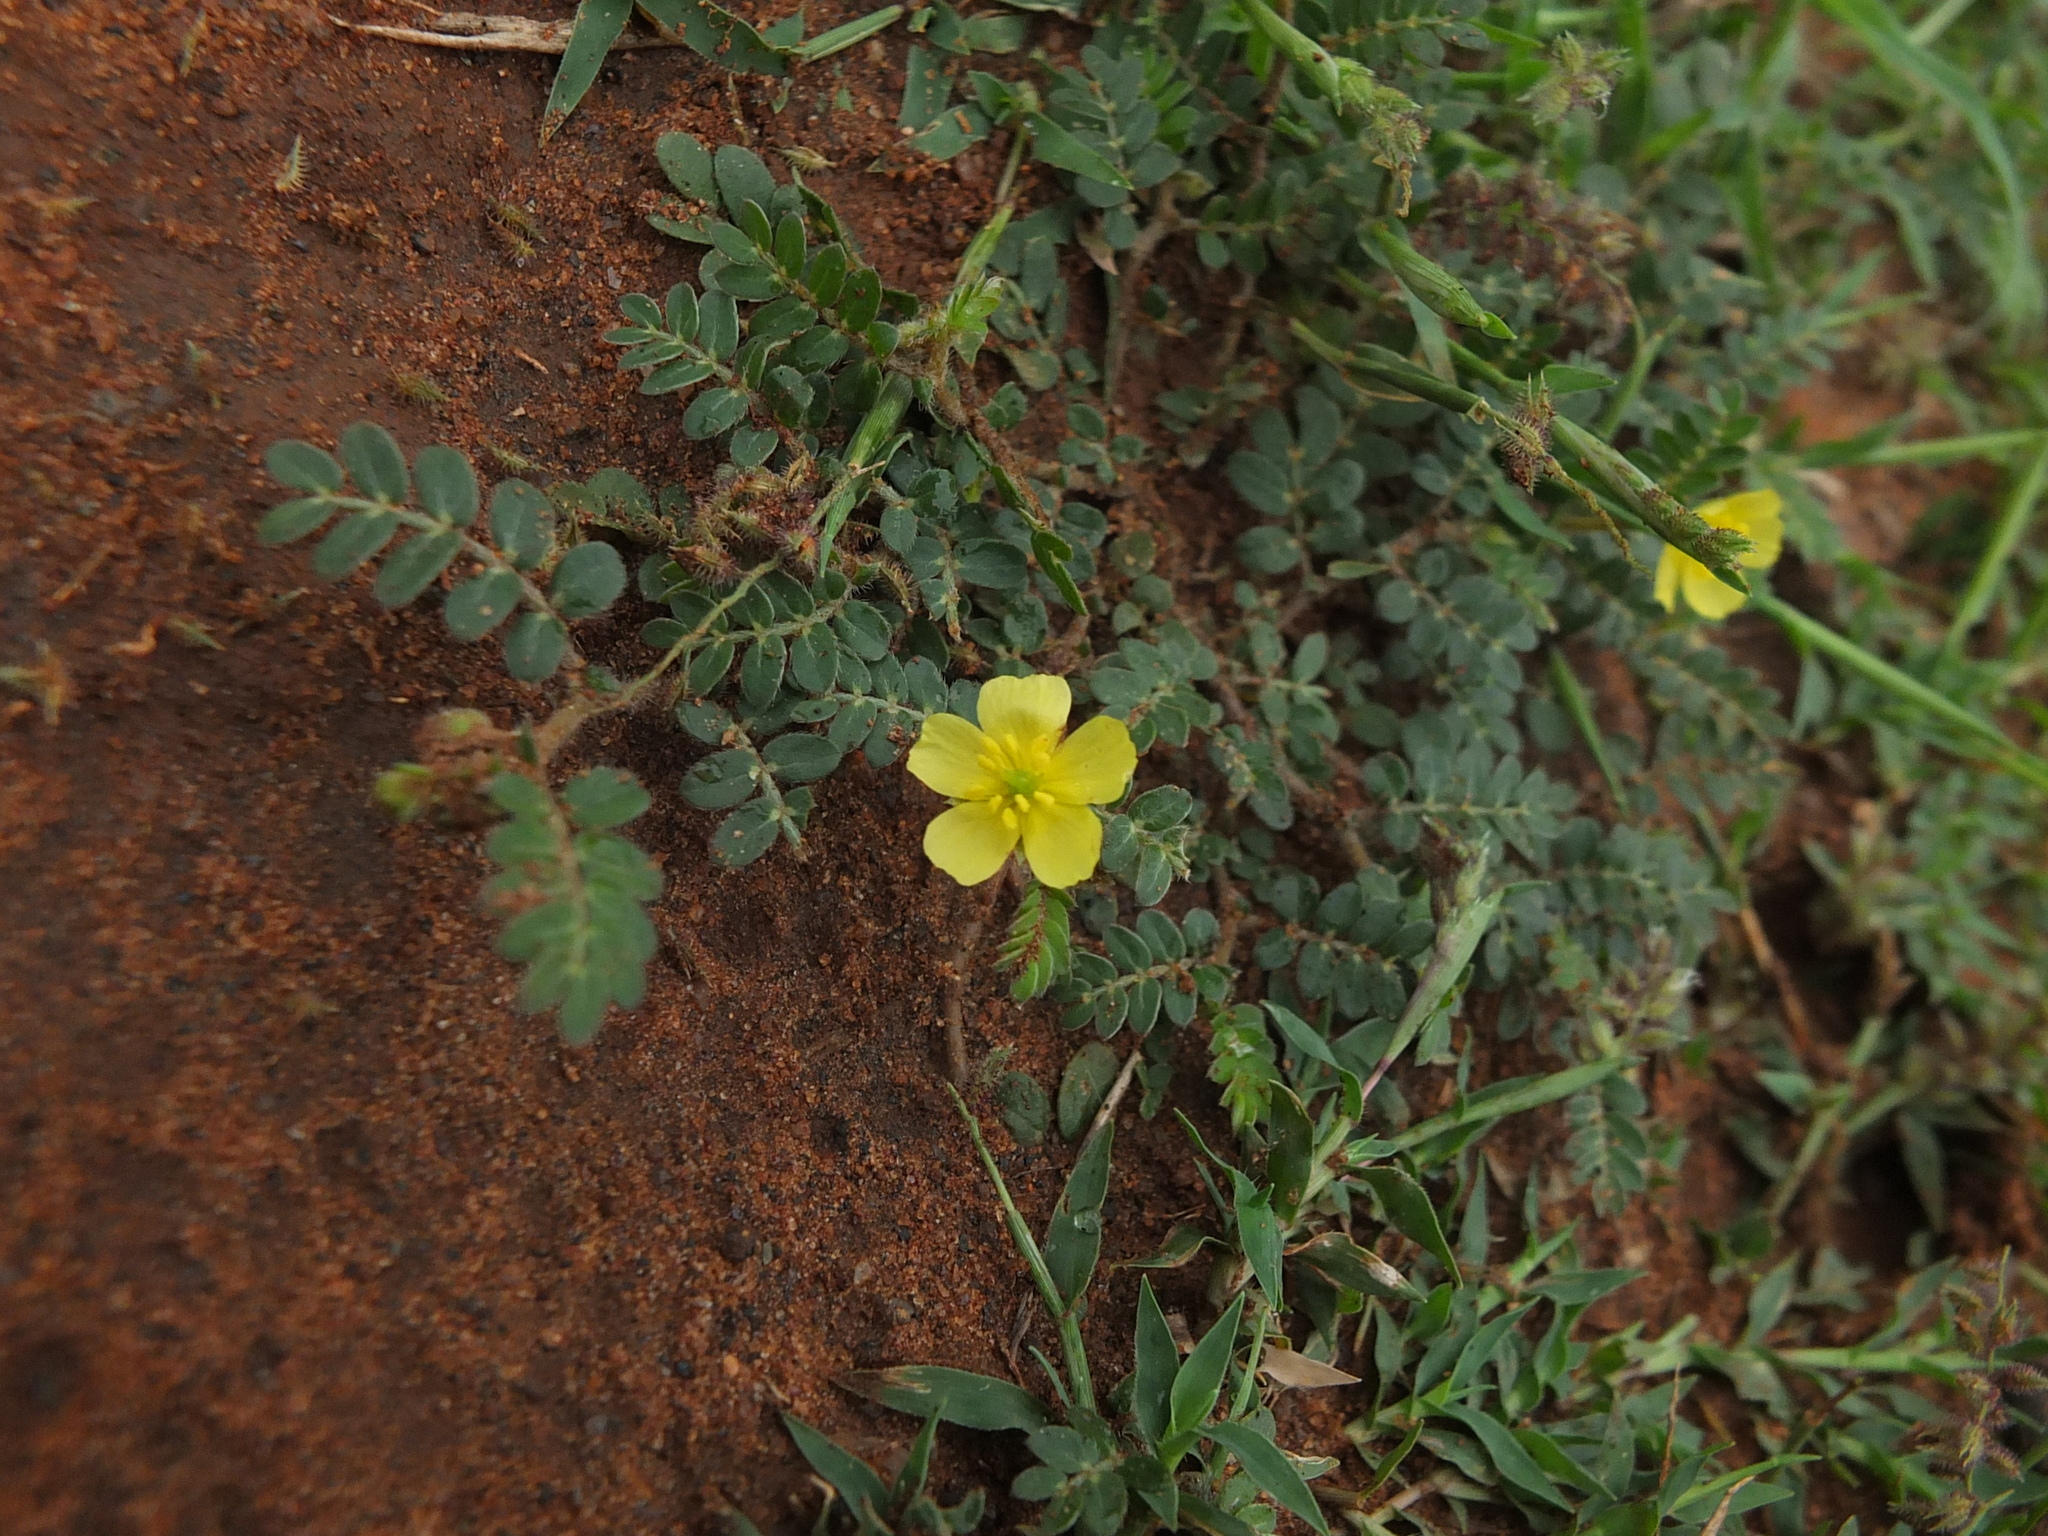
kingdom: Plantae
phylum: Tracheophyta
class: Magnoliopsida
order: Zygophyllales
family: Zygophyllaceae
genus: Tribulus
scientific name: Tribulus terrestris
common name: Puncturevine
